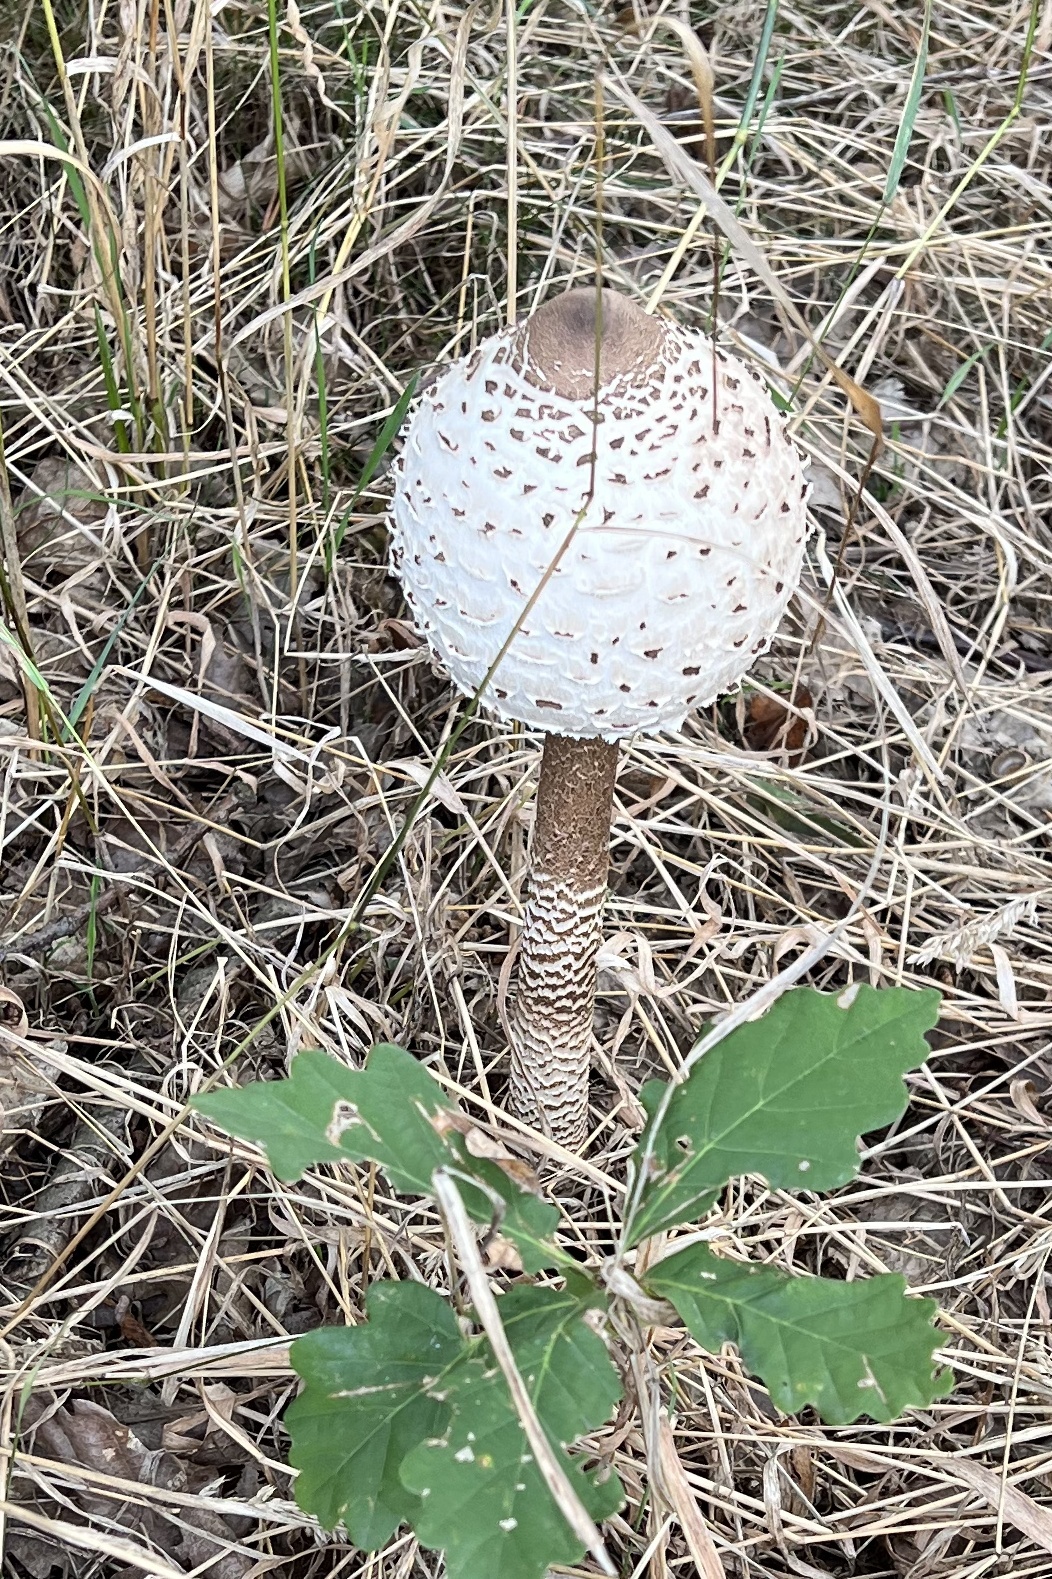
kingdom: Fungi
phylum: Basidiomycota
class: Agaricomycetes
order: Agaricales
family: Agaricaceae
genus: Macrolepiota
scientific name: Macrolepiota procera
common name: Parasol
